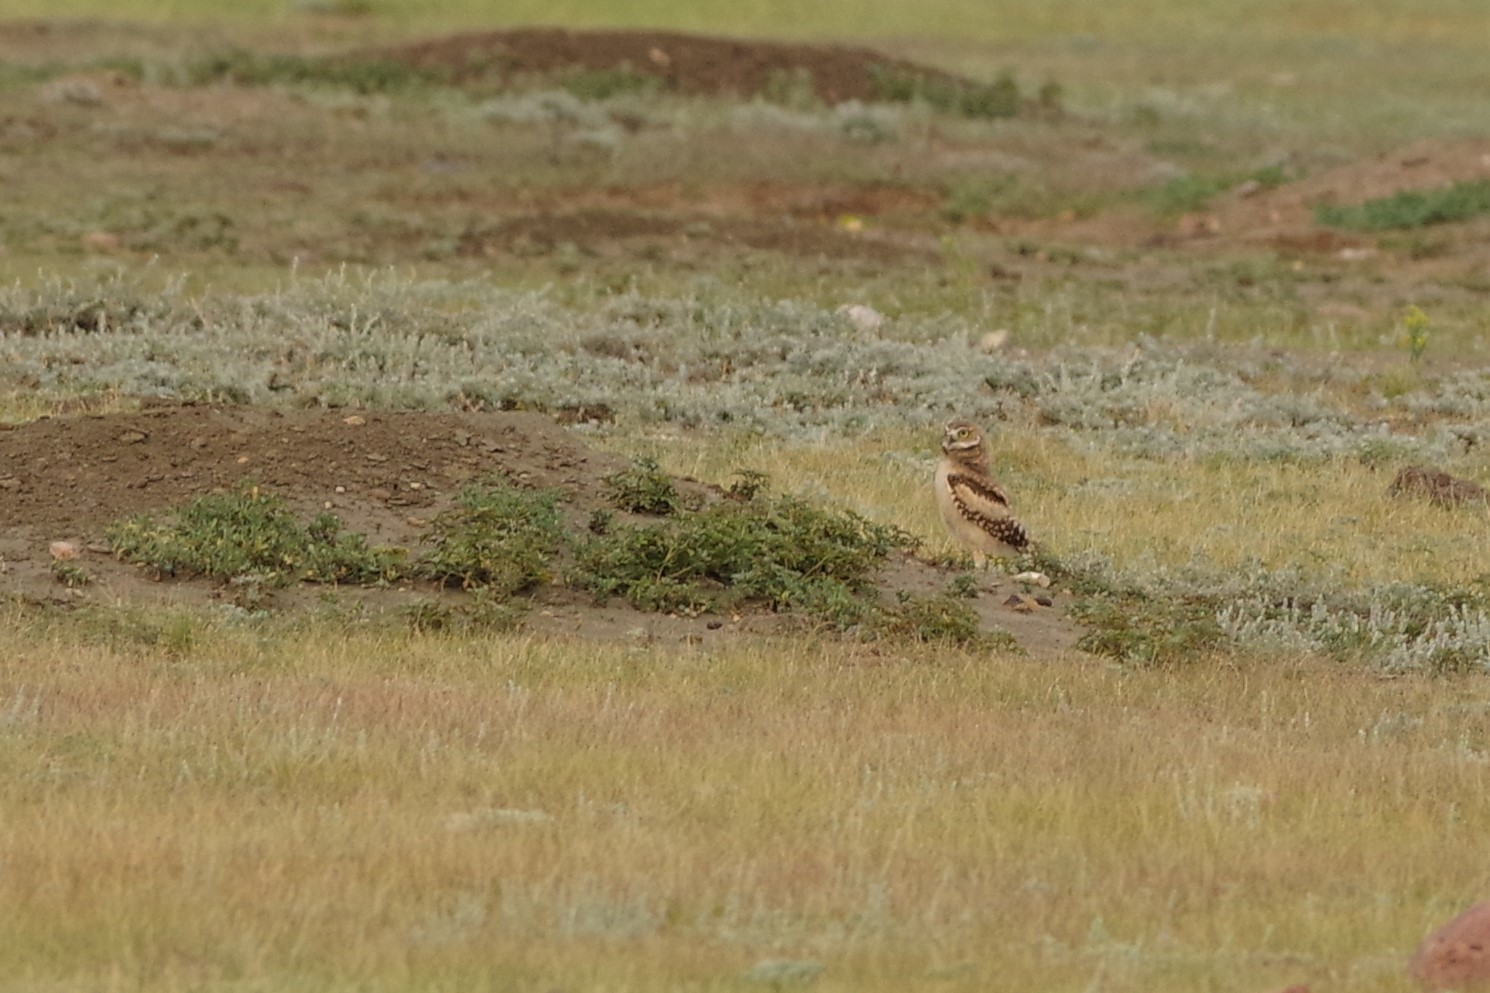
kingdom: Animalia
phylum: Chordata
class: Aves
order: Strigiformes
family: Strigidae
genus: Athene
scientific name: Athene cunicularia
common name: Burrowing owl
